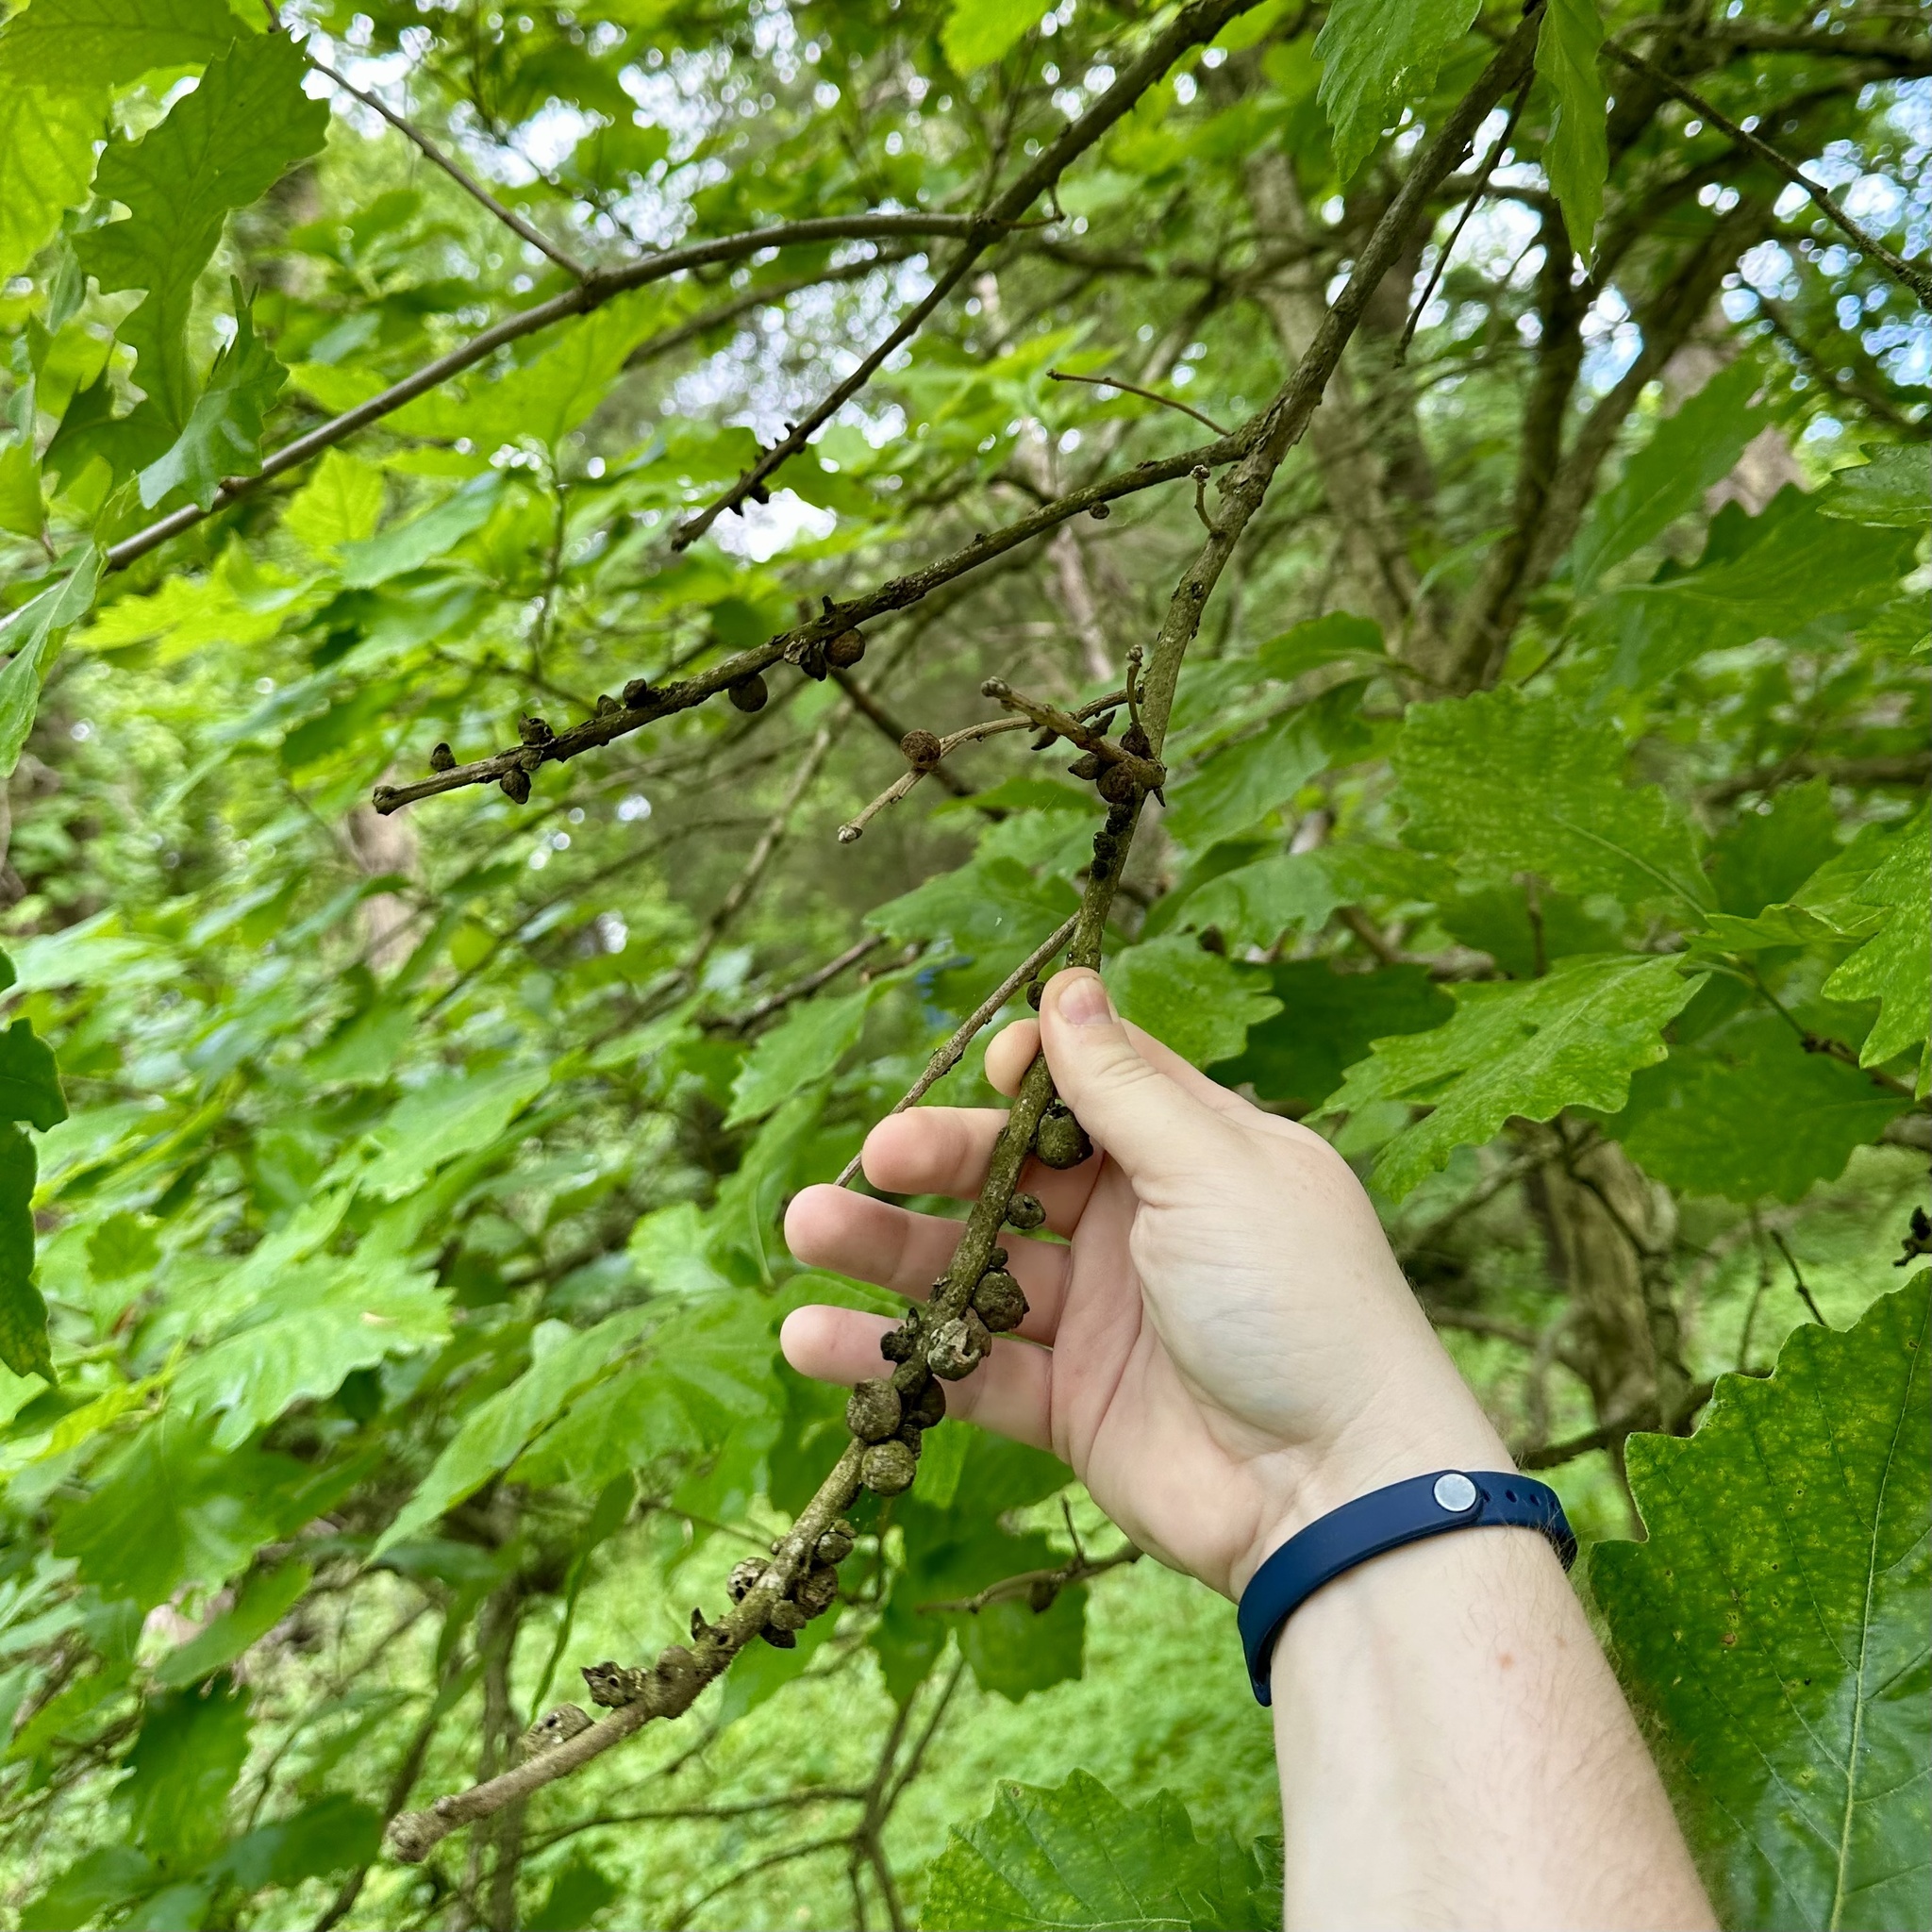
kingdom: Animalia
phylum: Arthropoda
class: Insecta
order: Hymenoptera
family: Cynipidae
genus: Disholcaspis
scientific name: Disholcaspis
